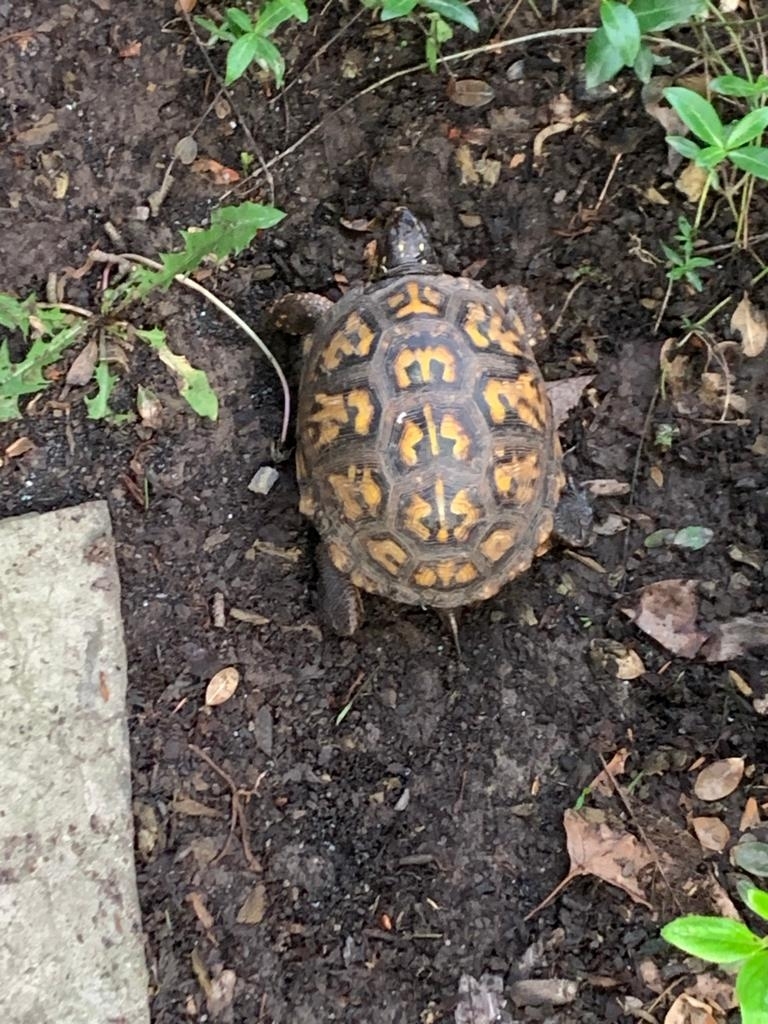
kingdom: Animalia
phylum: Chordata
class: Testudines
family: Emydidae
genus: Terrapene
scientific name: Terrapene carolina
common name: Common box turtle
